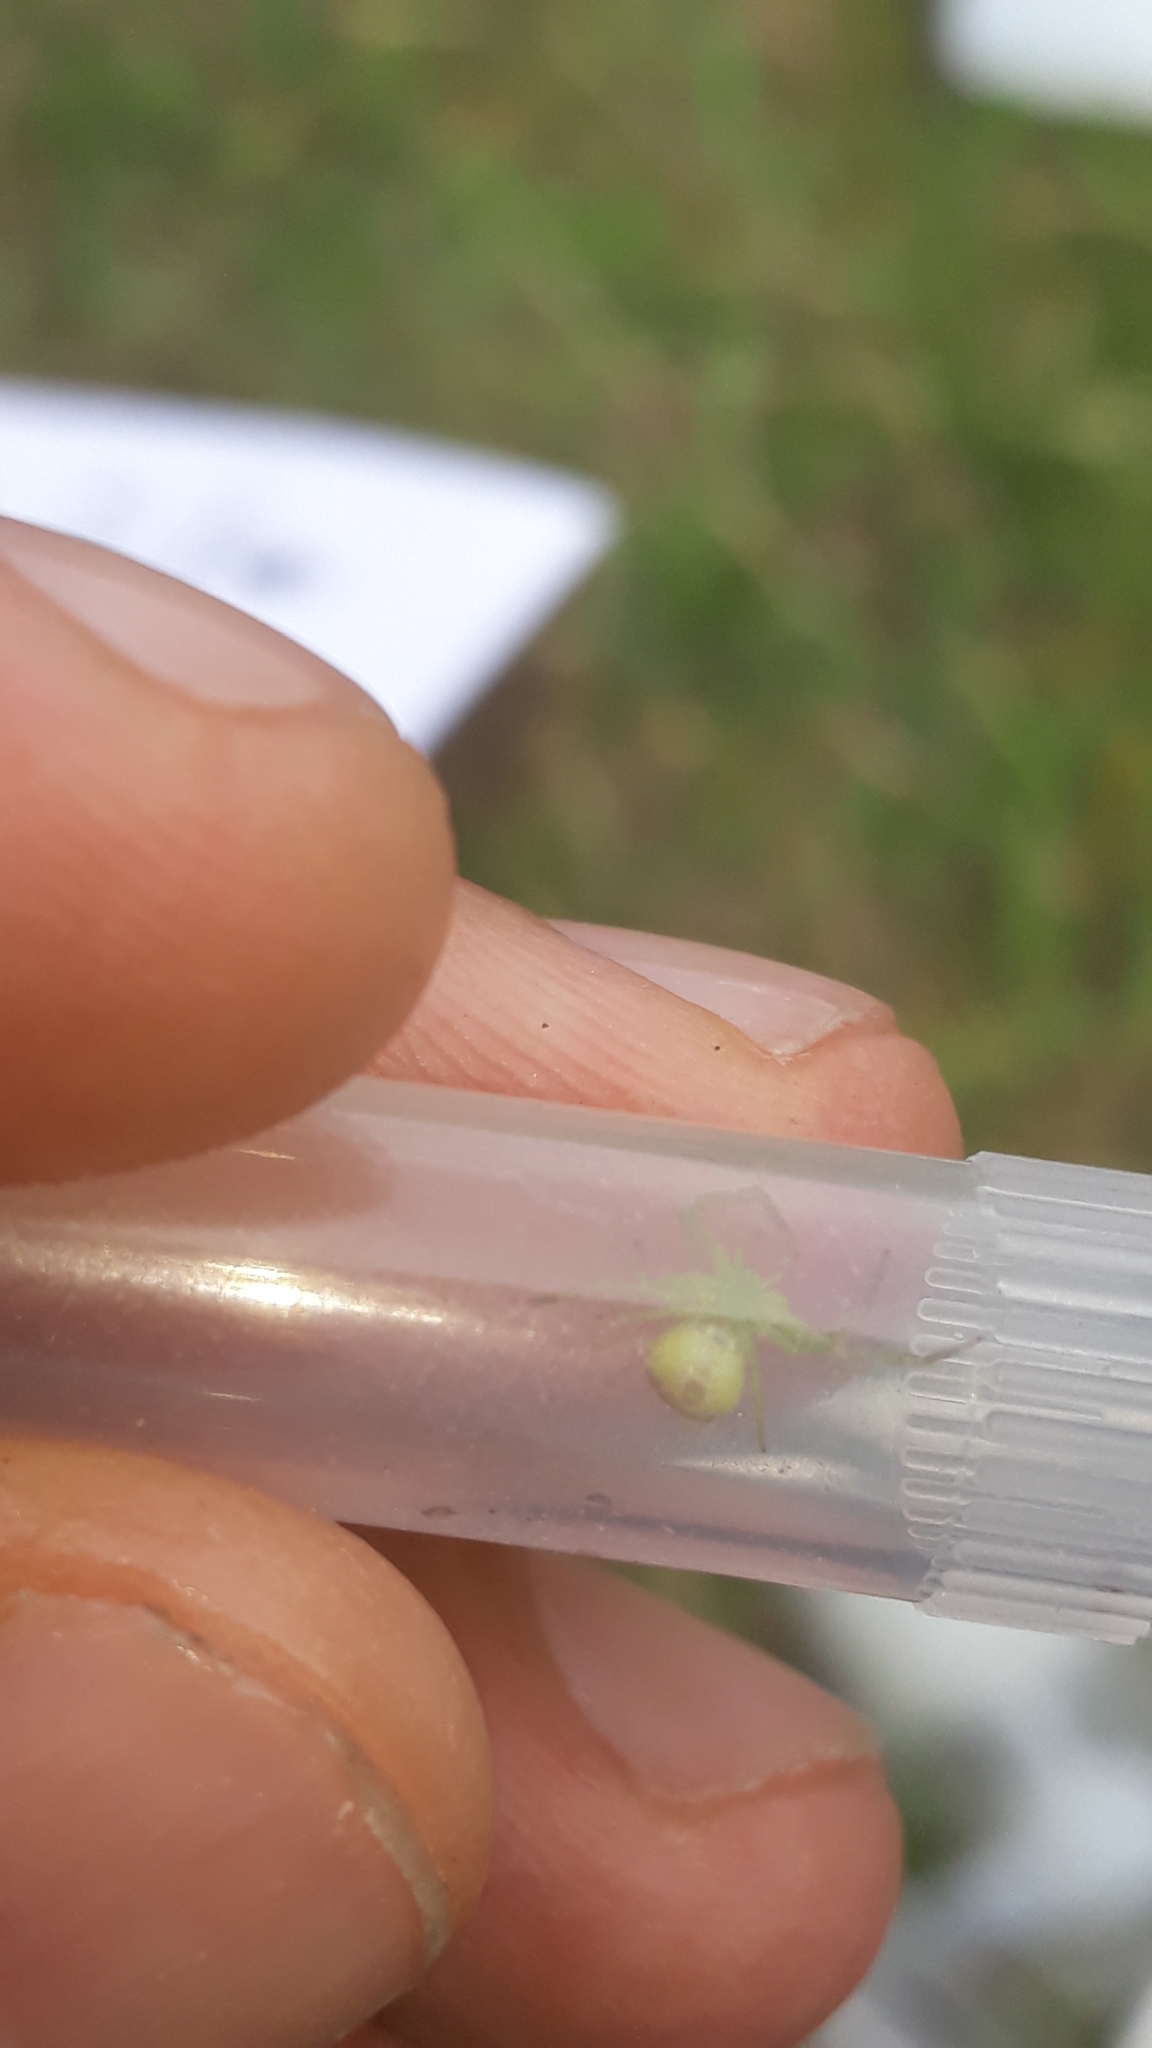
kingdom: Animalia
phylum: Arthropoda
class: Arachnida
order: Araneae
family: Thomisidae
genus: Ebrechtella
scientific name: Ebrechtella tricuspidata
